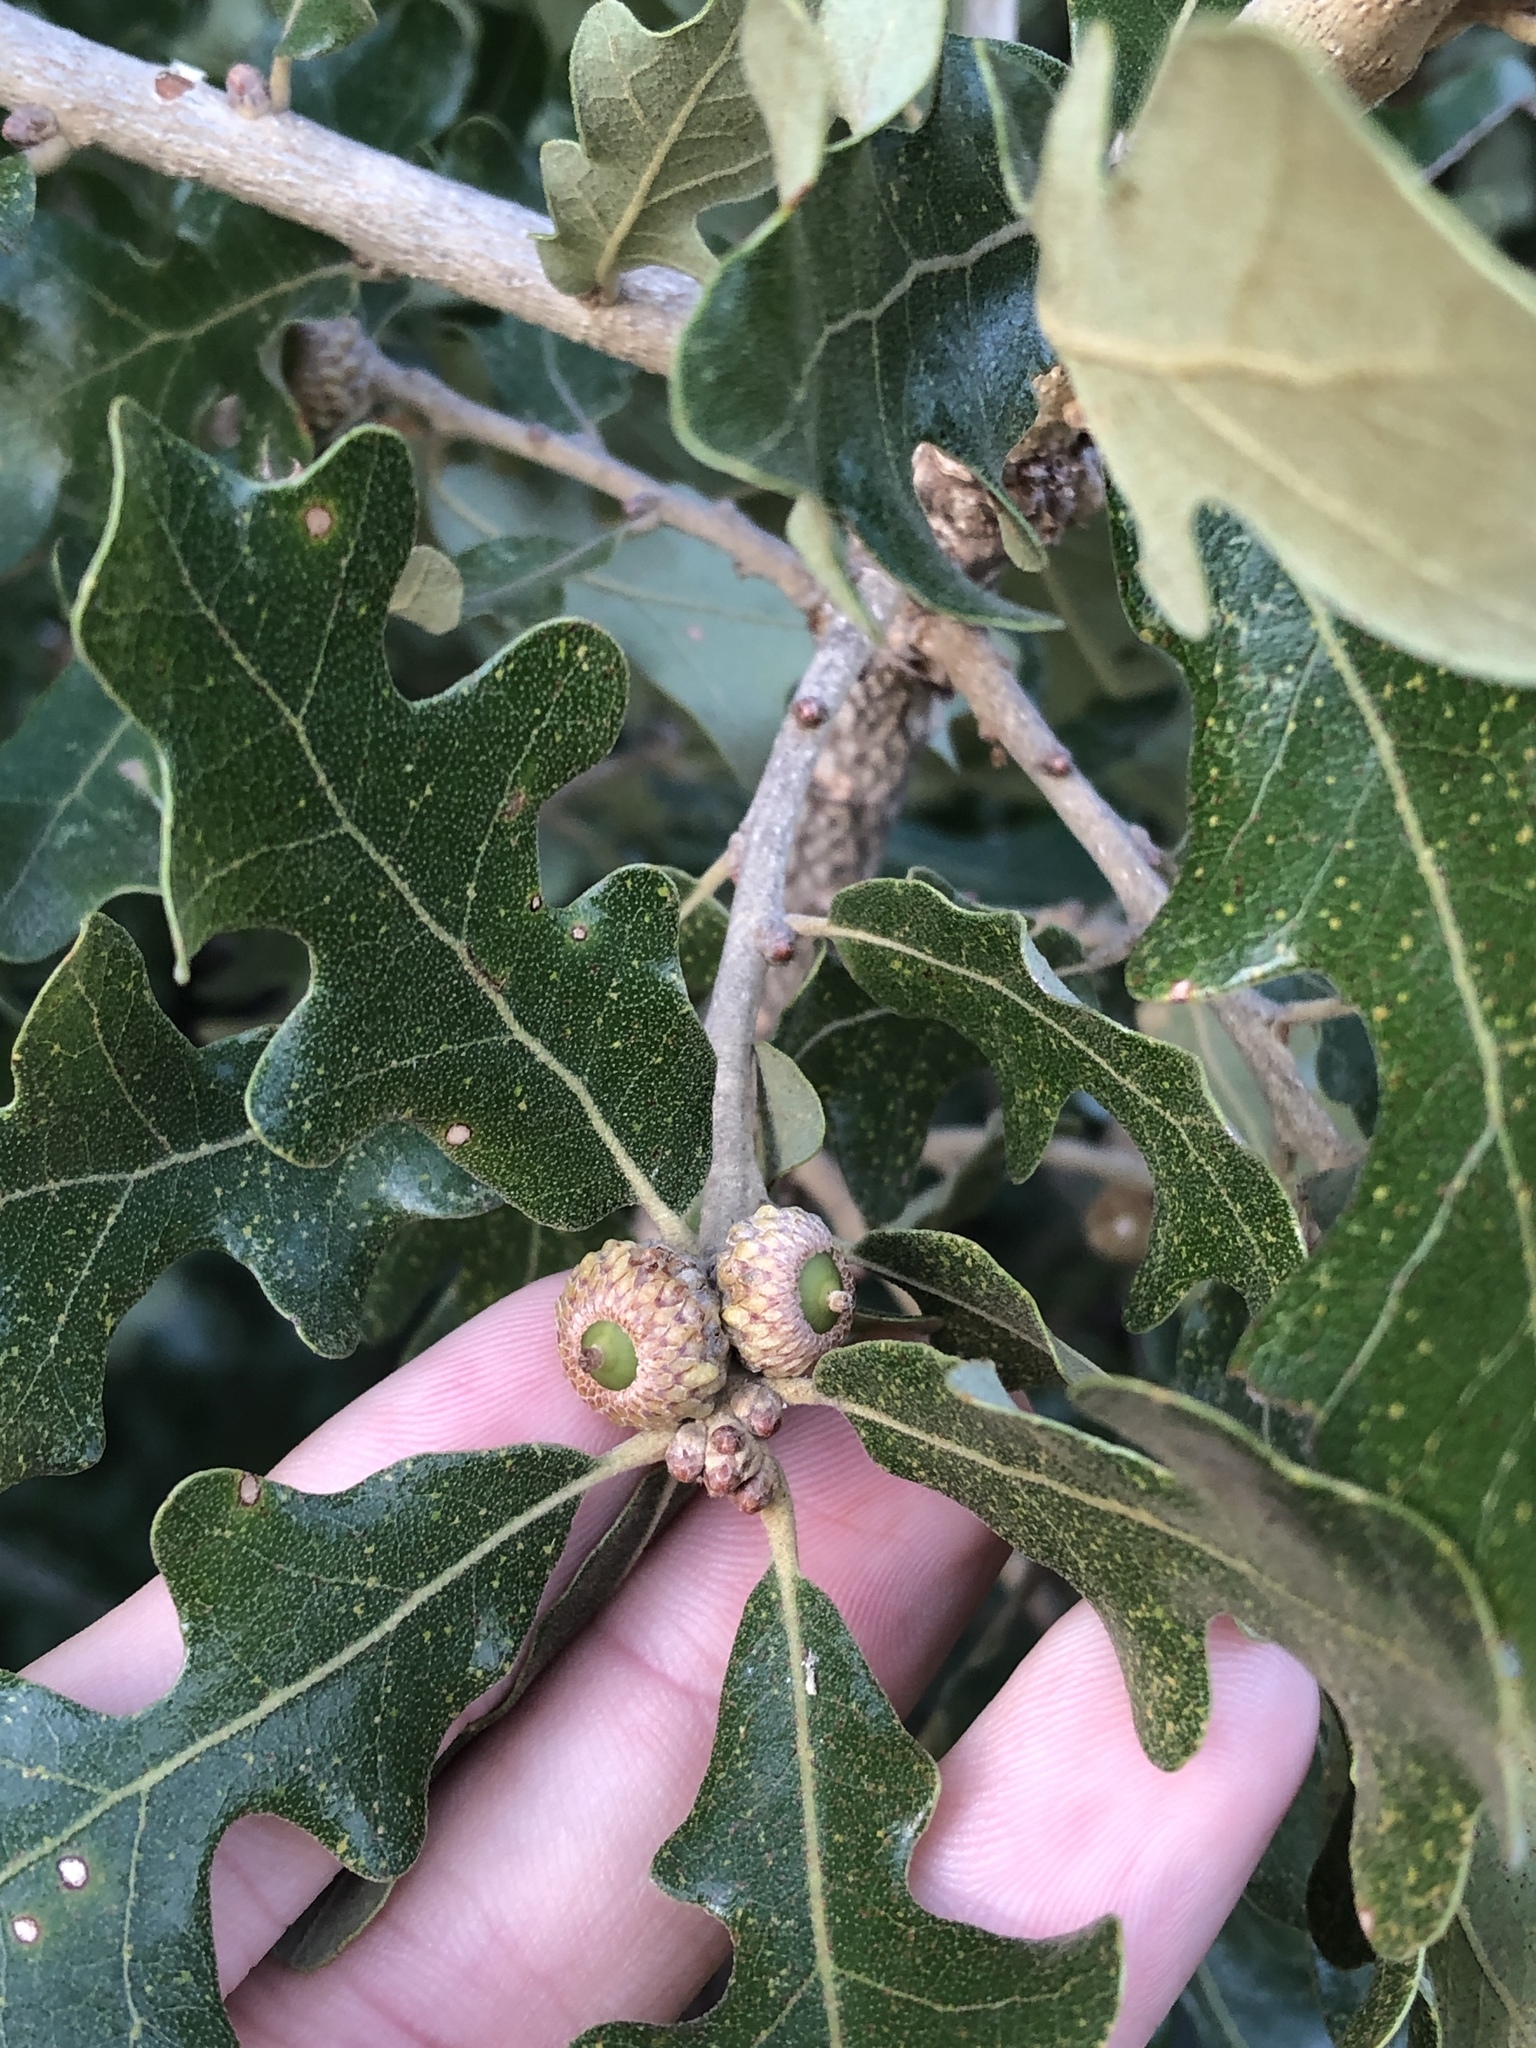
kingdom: Plantae
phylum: Tracheophyta
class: Magnoliopsida
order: Fagales
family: Fagaceae
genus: Quercus
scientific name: Quercus stellata
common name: Post oak
